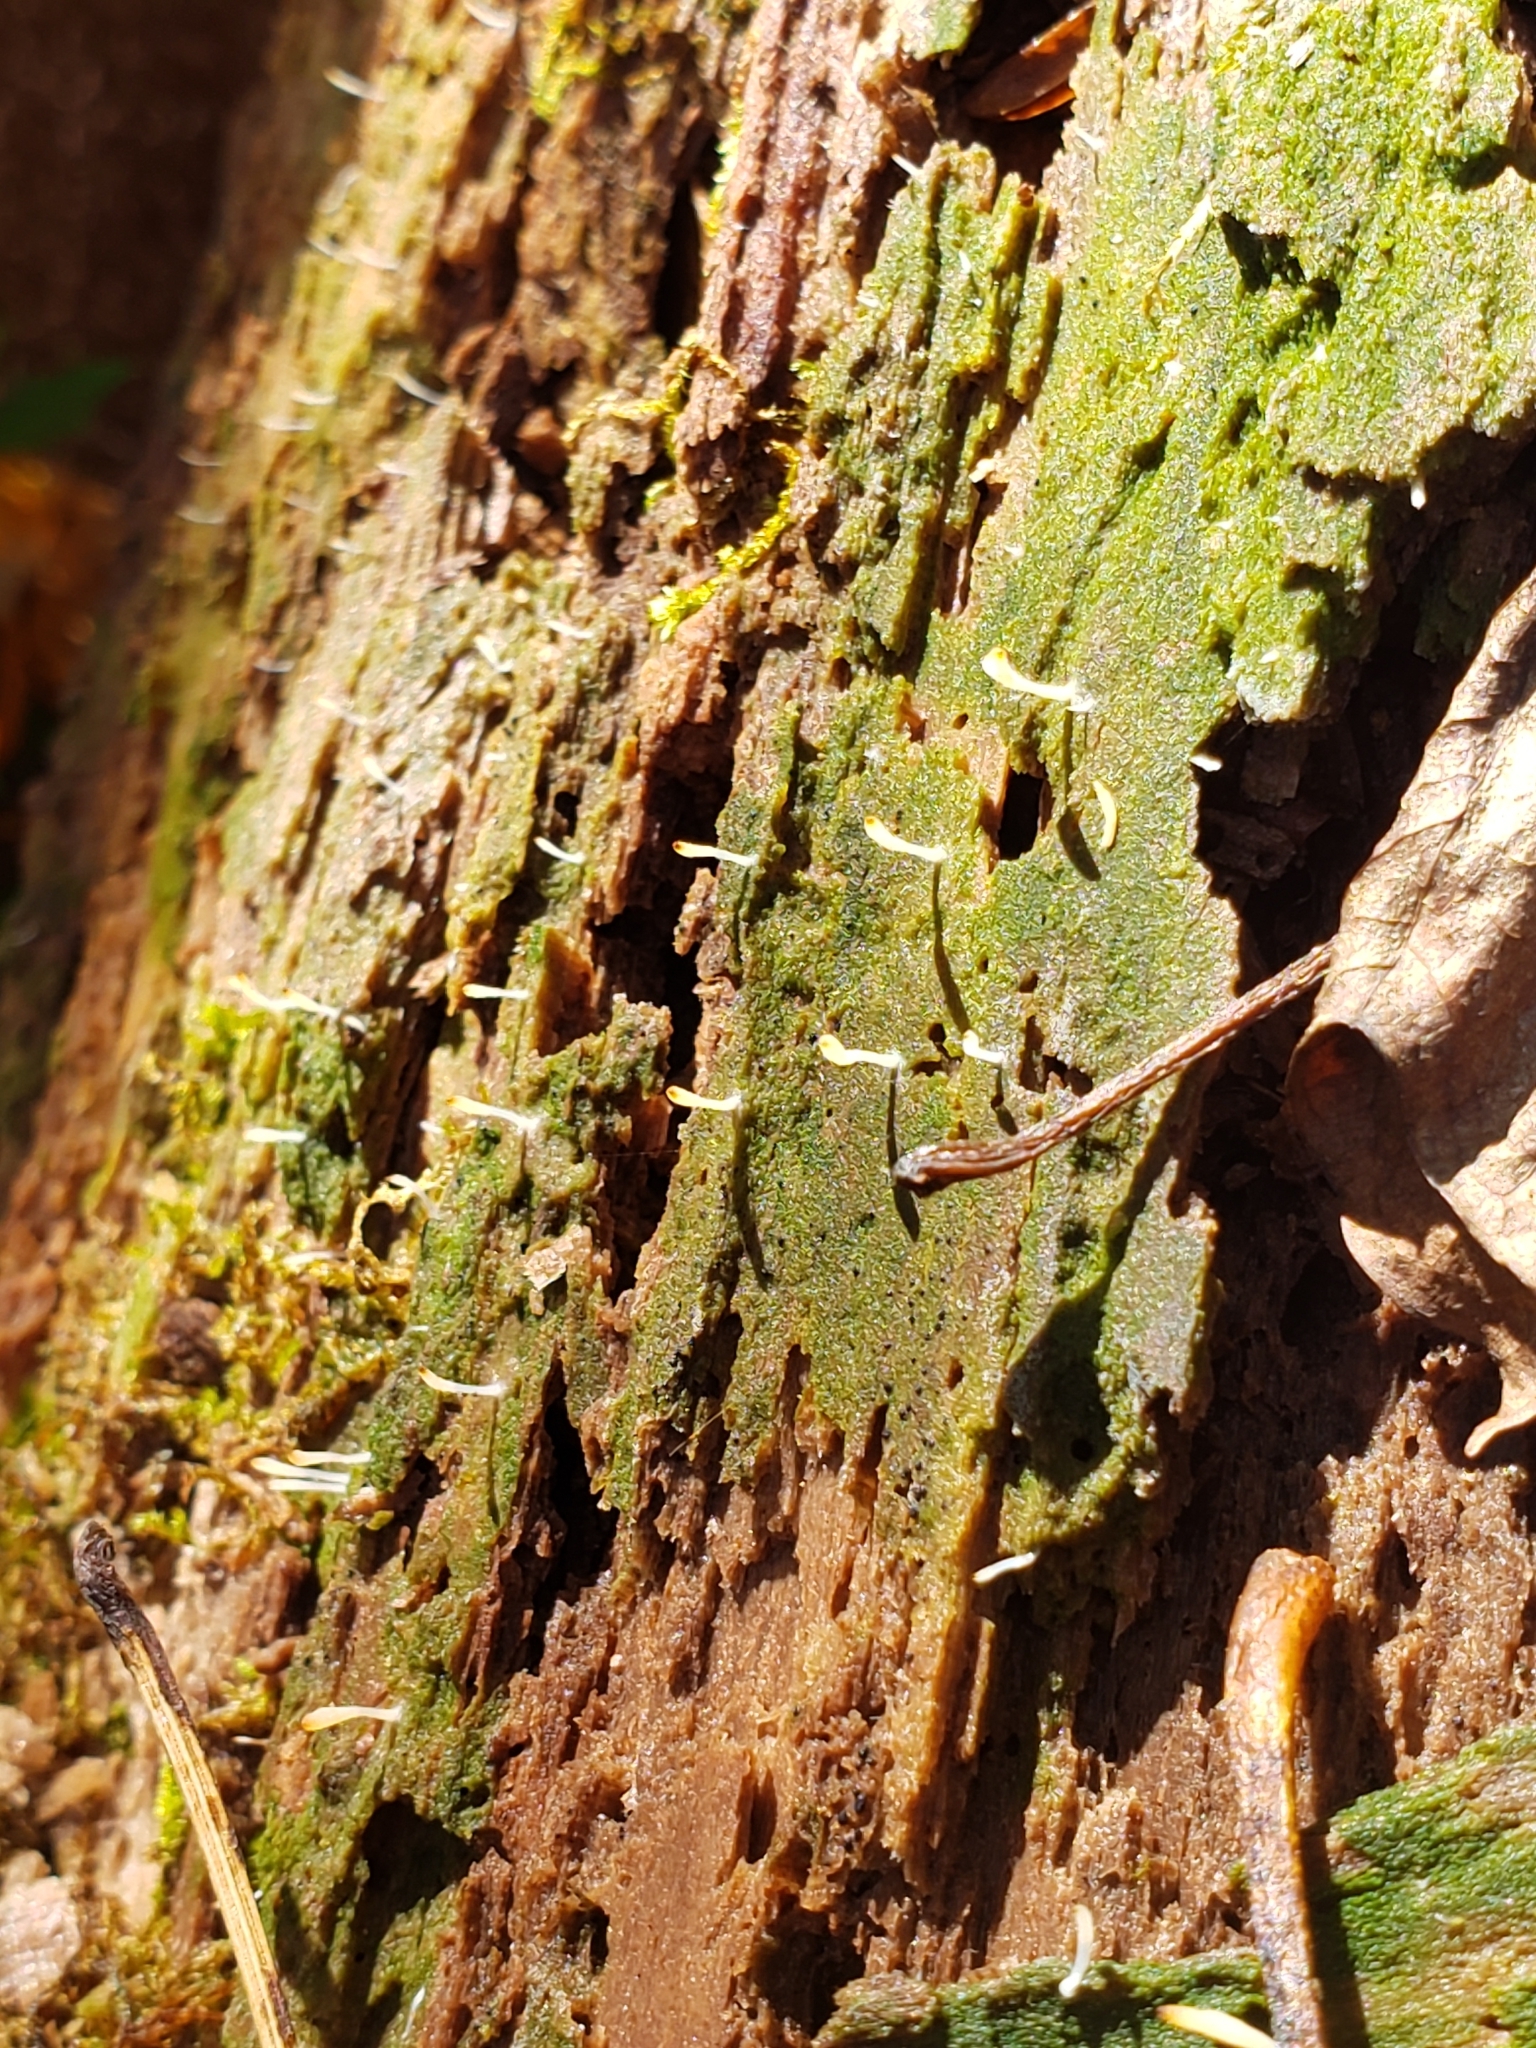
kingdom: Fungi
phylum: Basidiomycota
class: Agaricomycetes
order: Cantharellales
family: Hydnaceae
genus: Multiclavula
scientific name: Multiclavula mucida
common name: White green-algae coral
